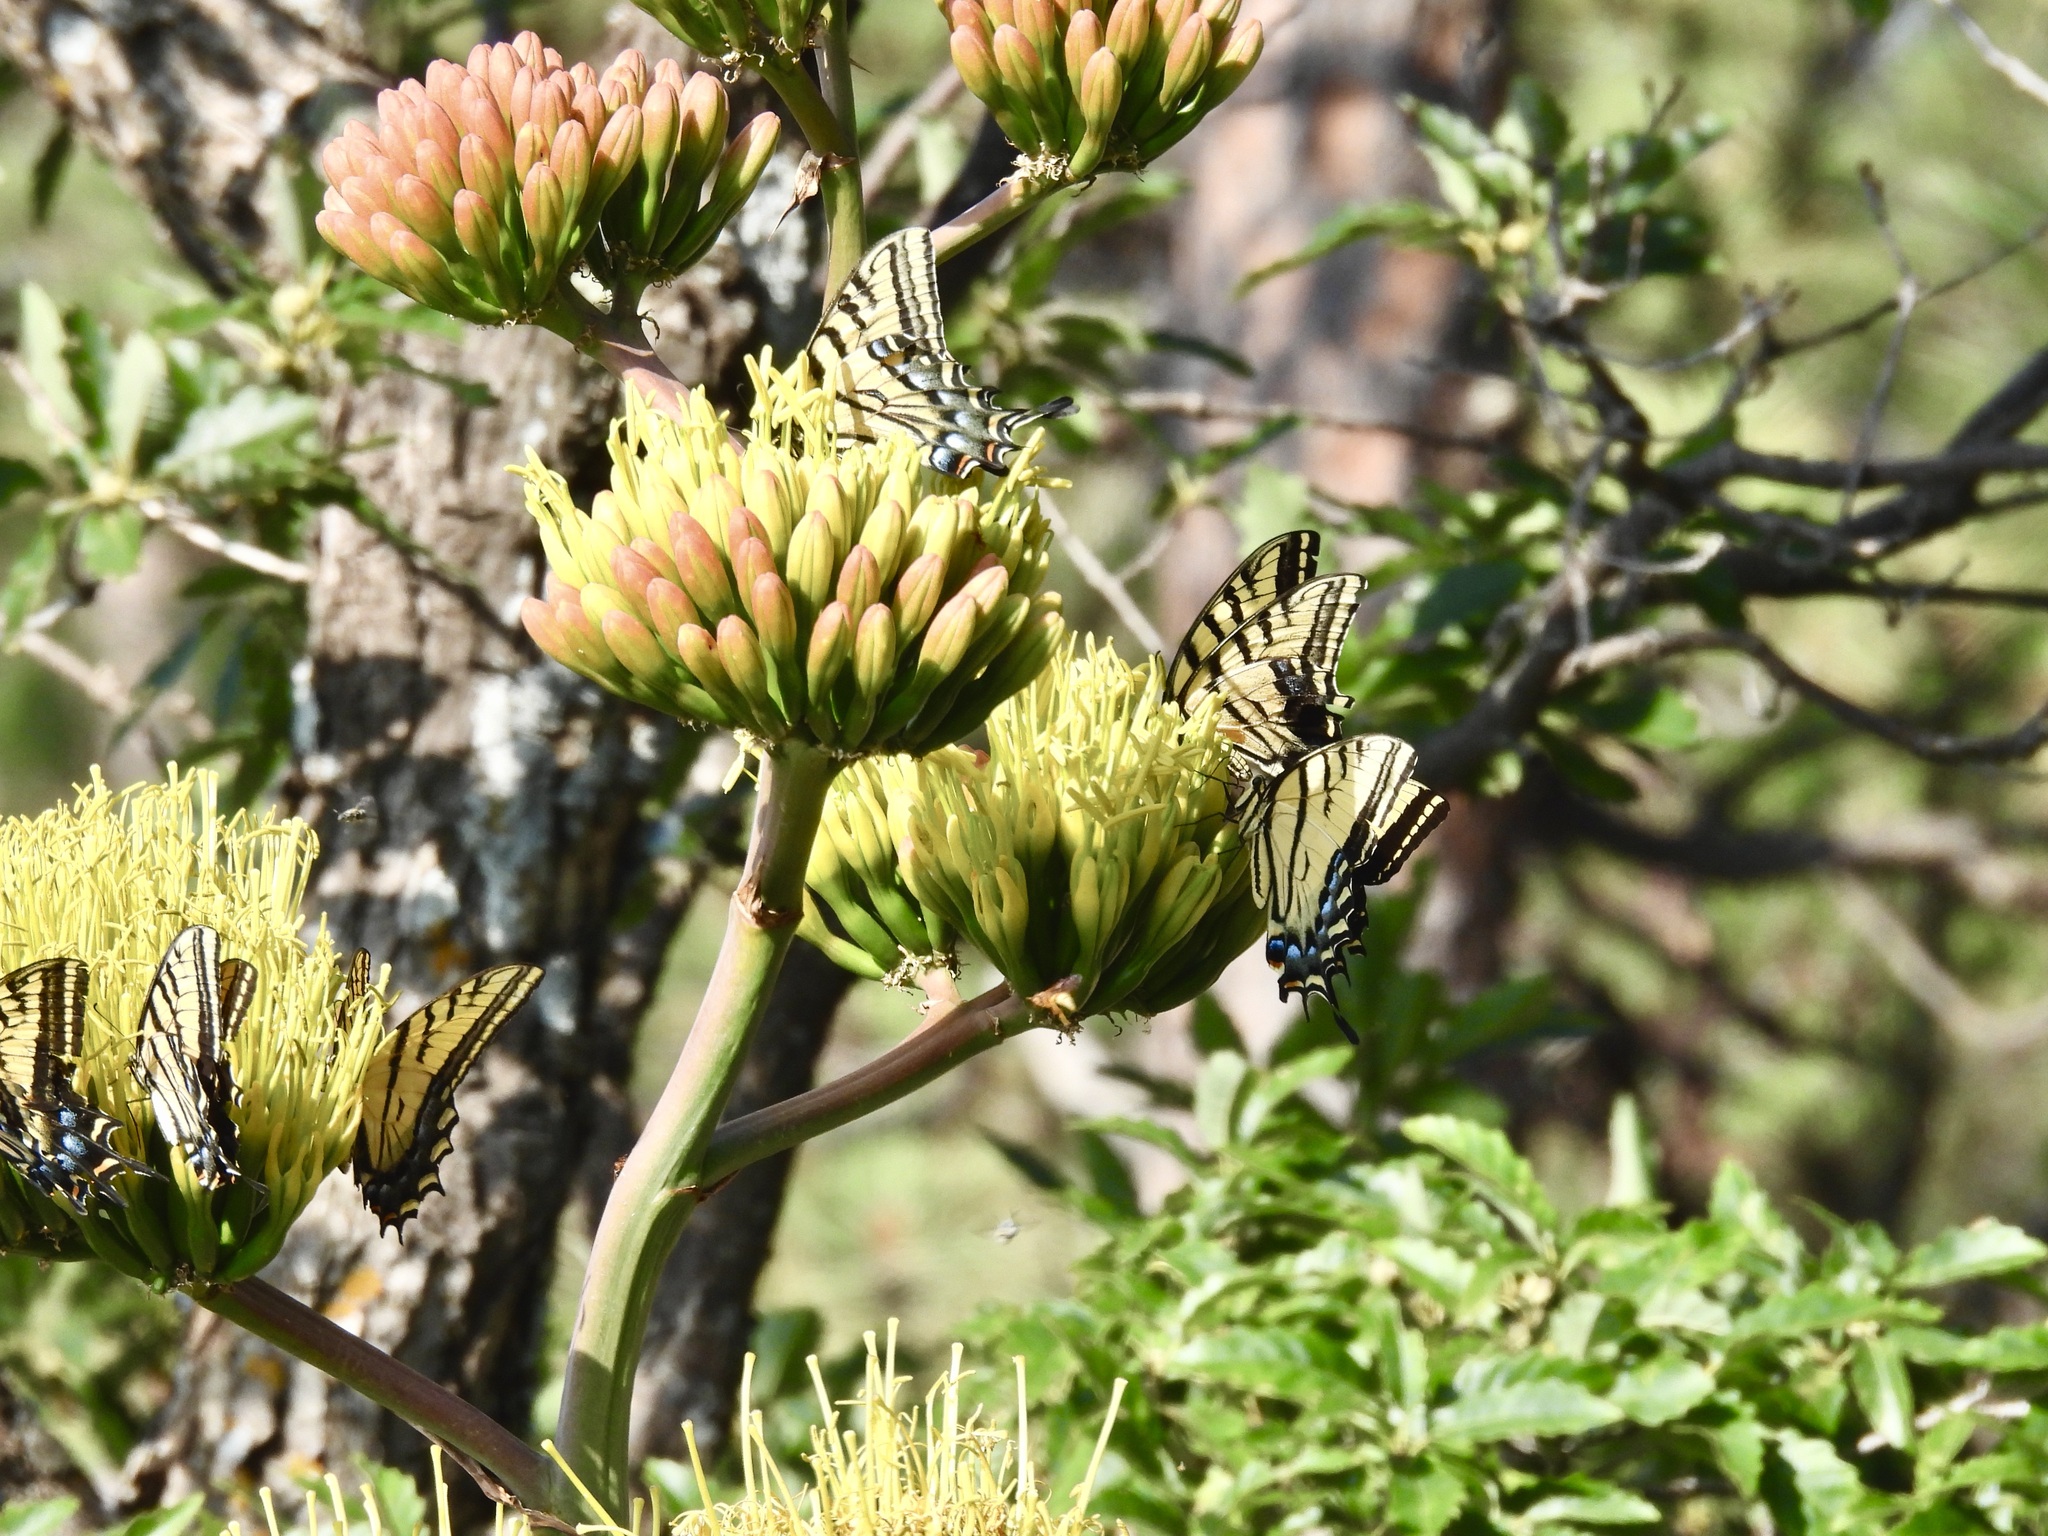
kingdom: Animalia
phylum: Arthropoda
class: Insecta
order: Lepidoptera
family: Papilionidae
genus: Papilio
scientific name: Papilio multicaudata
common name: Two-tailed tiger swallowtail
